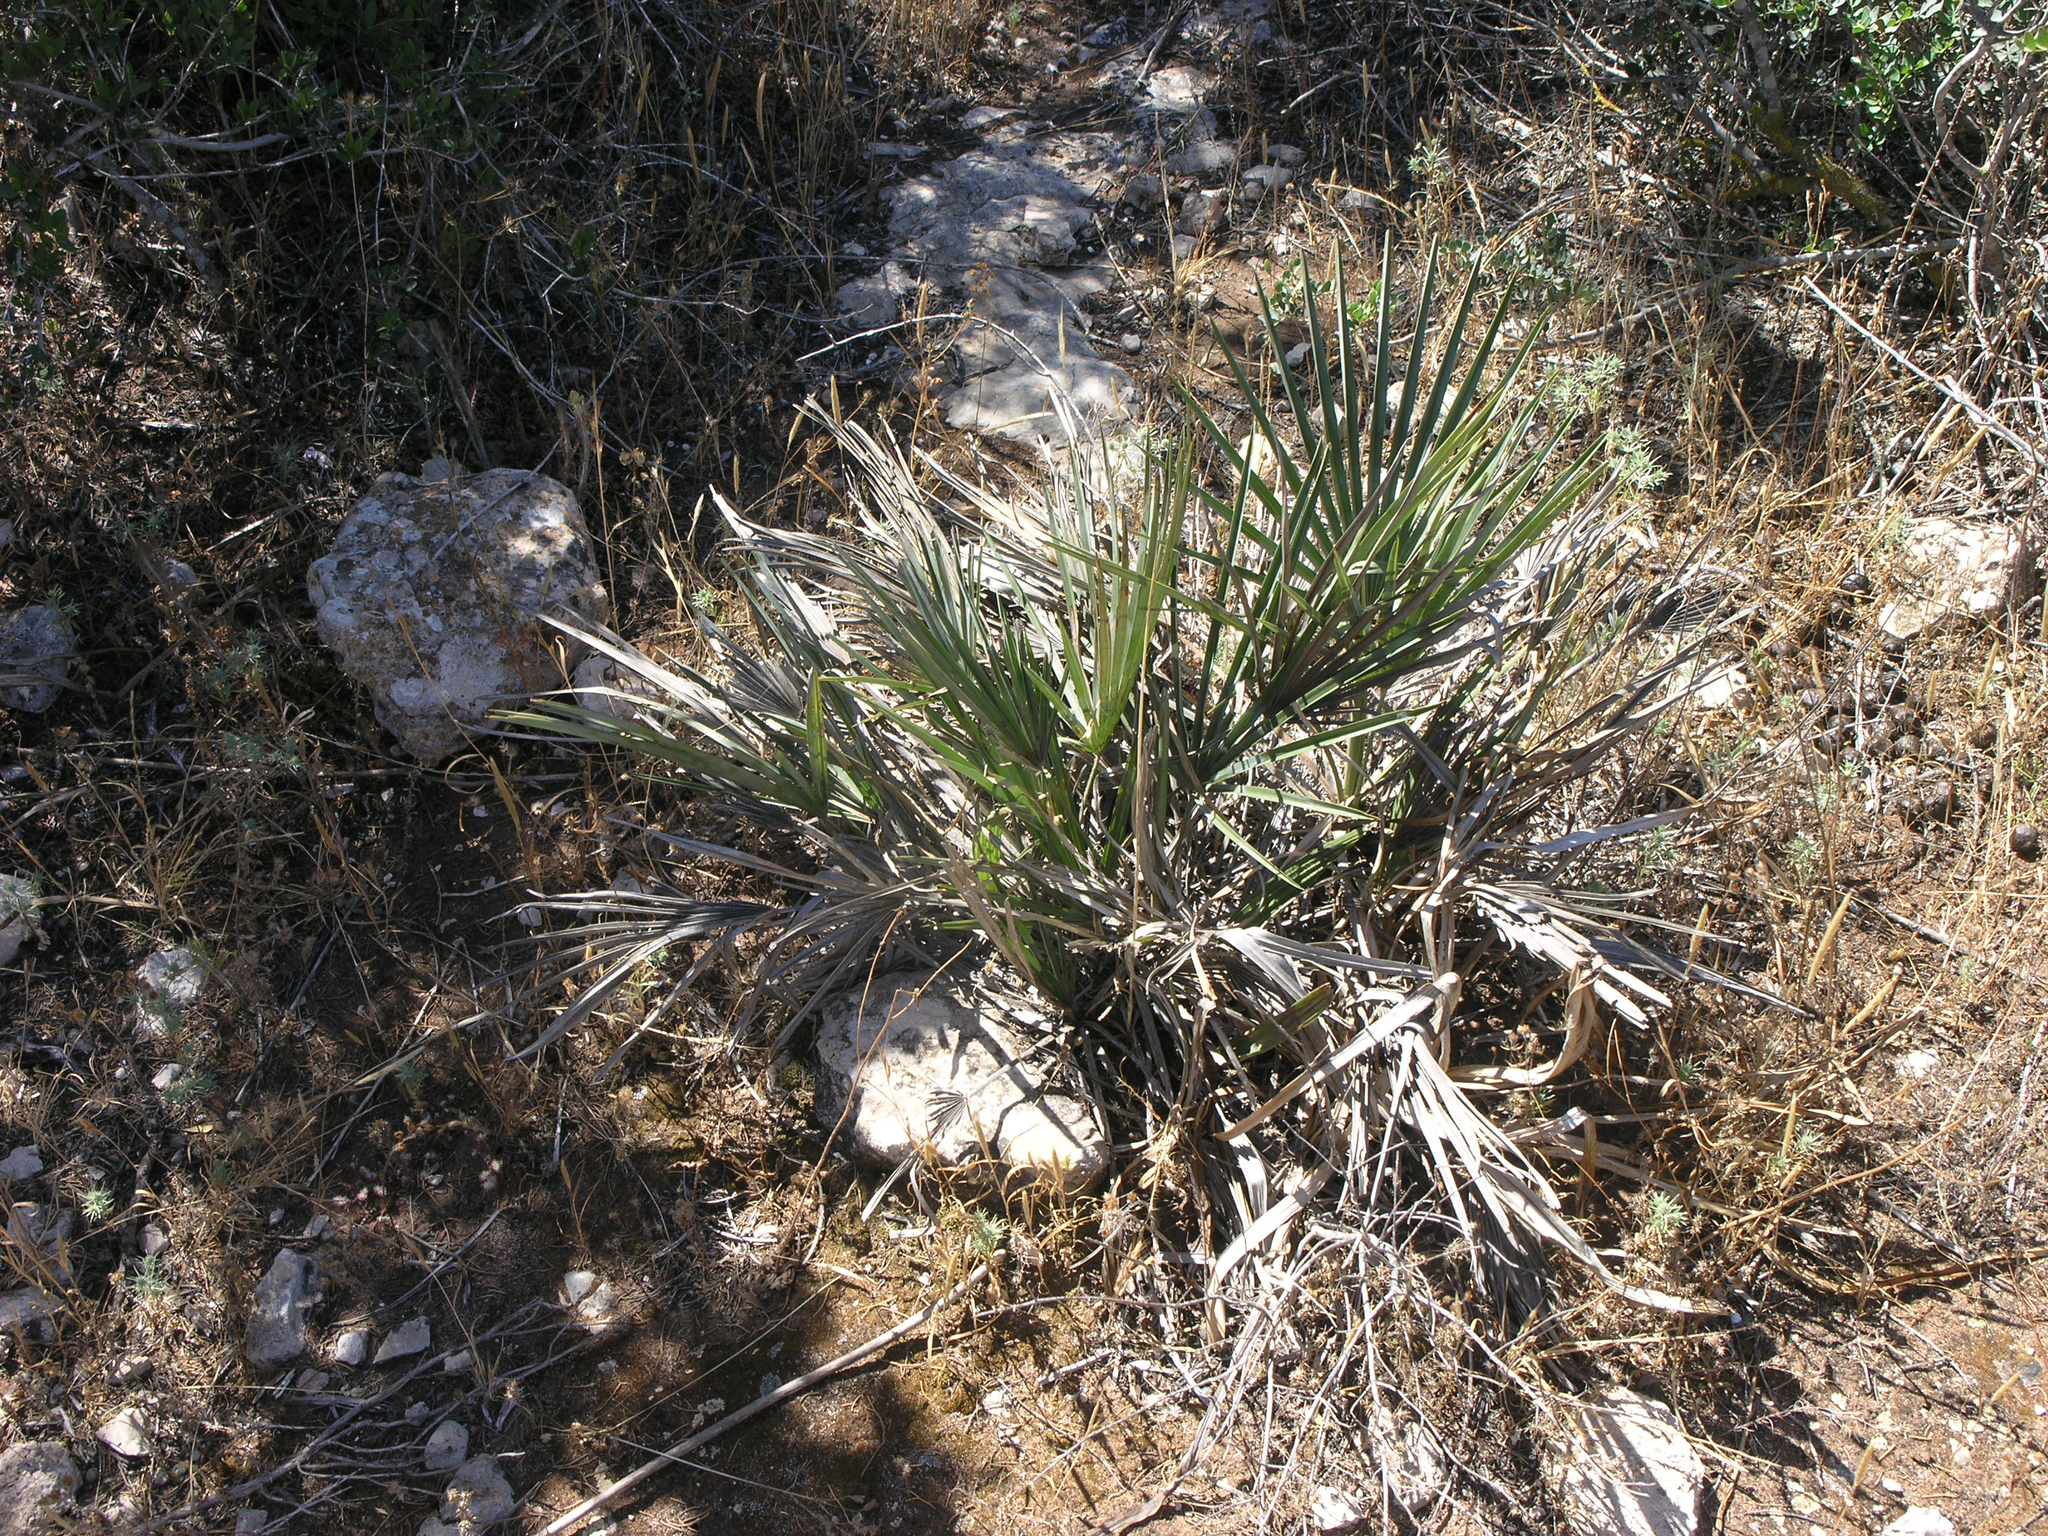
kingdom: Plantae
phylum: Tracheophyta
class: Liliopsida
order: Arecales
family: Arecaceae
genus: Chamaerops
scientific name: Chamaerops humilis
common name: Dwarf fan palm
